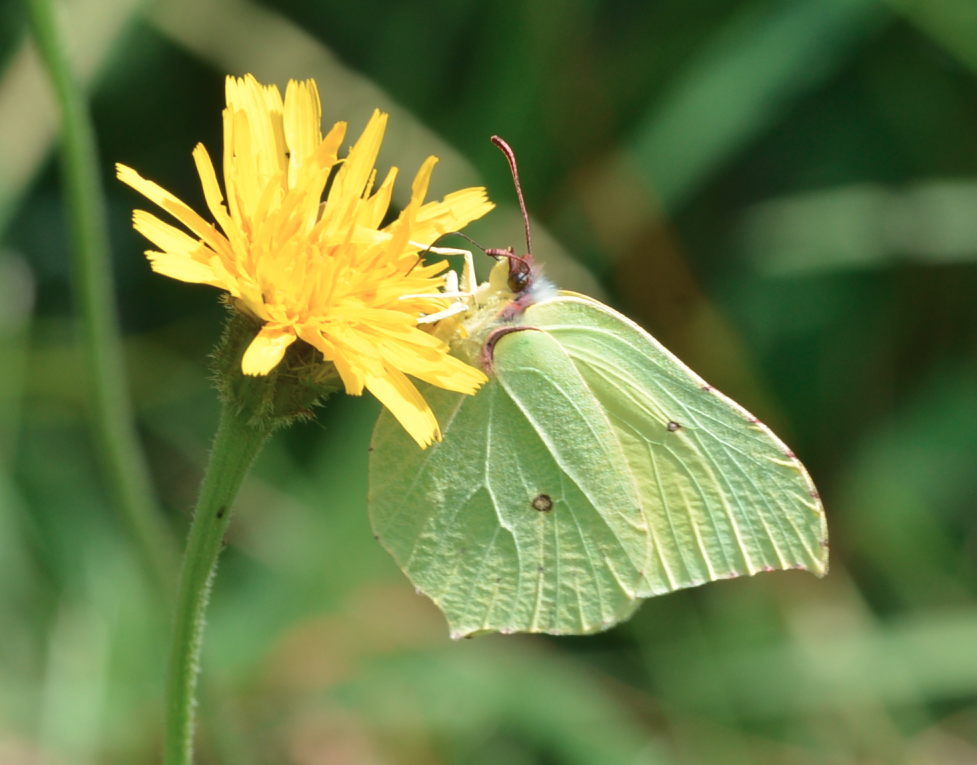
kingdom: Animalia
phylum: Arthropoda
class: Insecta
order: Lepidoptera
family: Pieridae
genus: Gonepteryx
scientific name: Gonepteryx rhamni
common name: Brimstone
